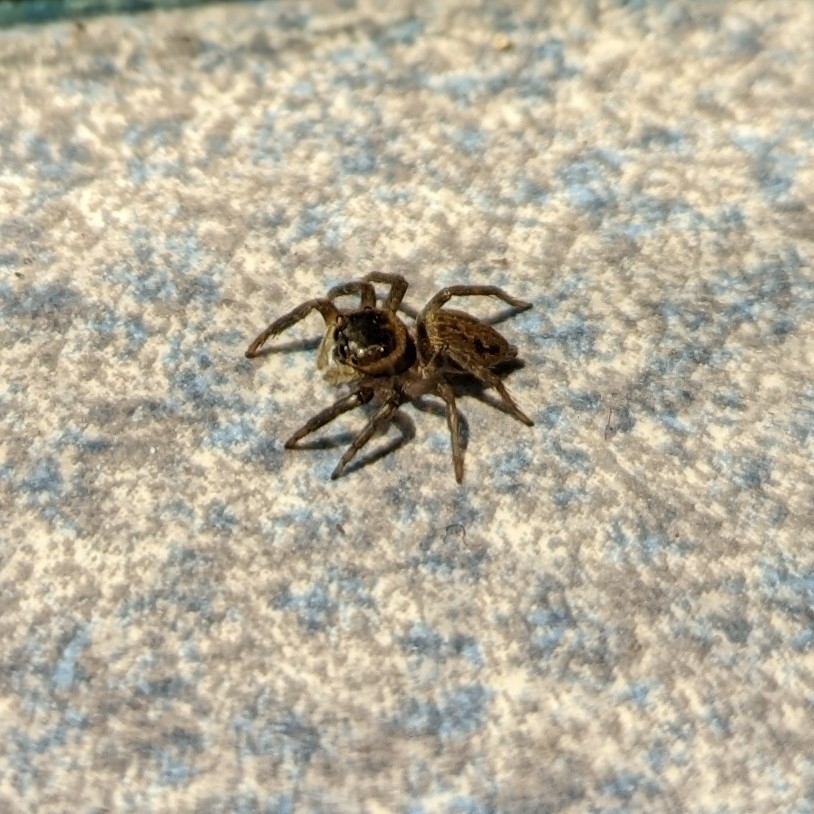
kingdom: Animalia
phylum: Arthropoda
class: Arachnida
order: Araneae
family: Salticidae
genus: Hasarius
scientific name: Hasarius adansoni
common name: Jumping spider
